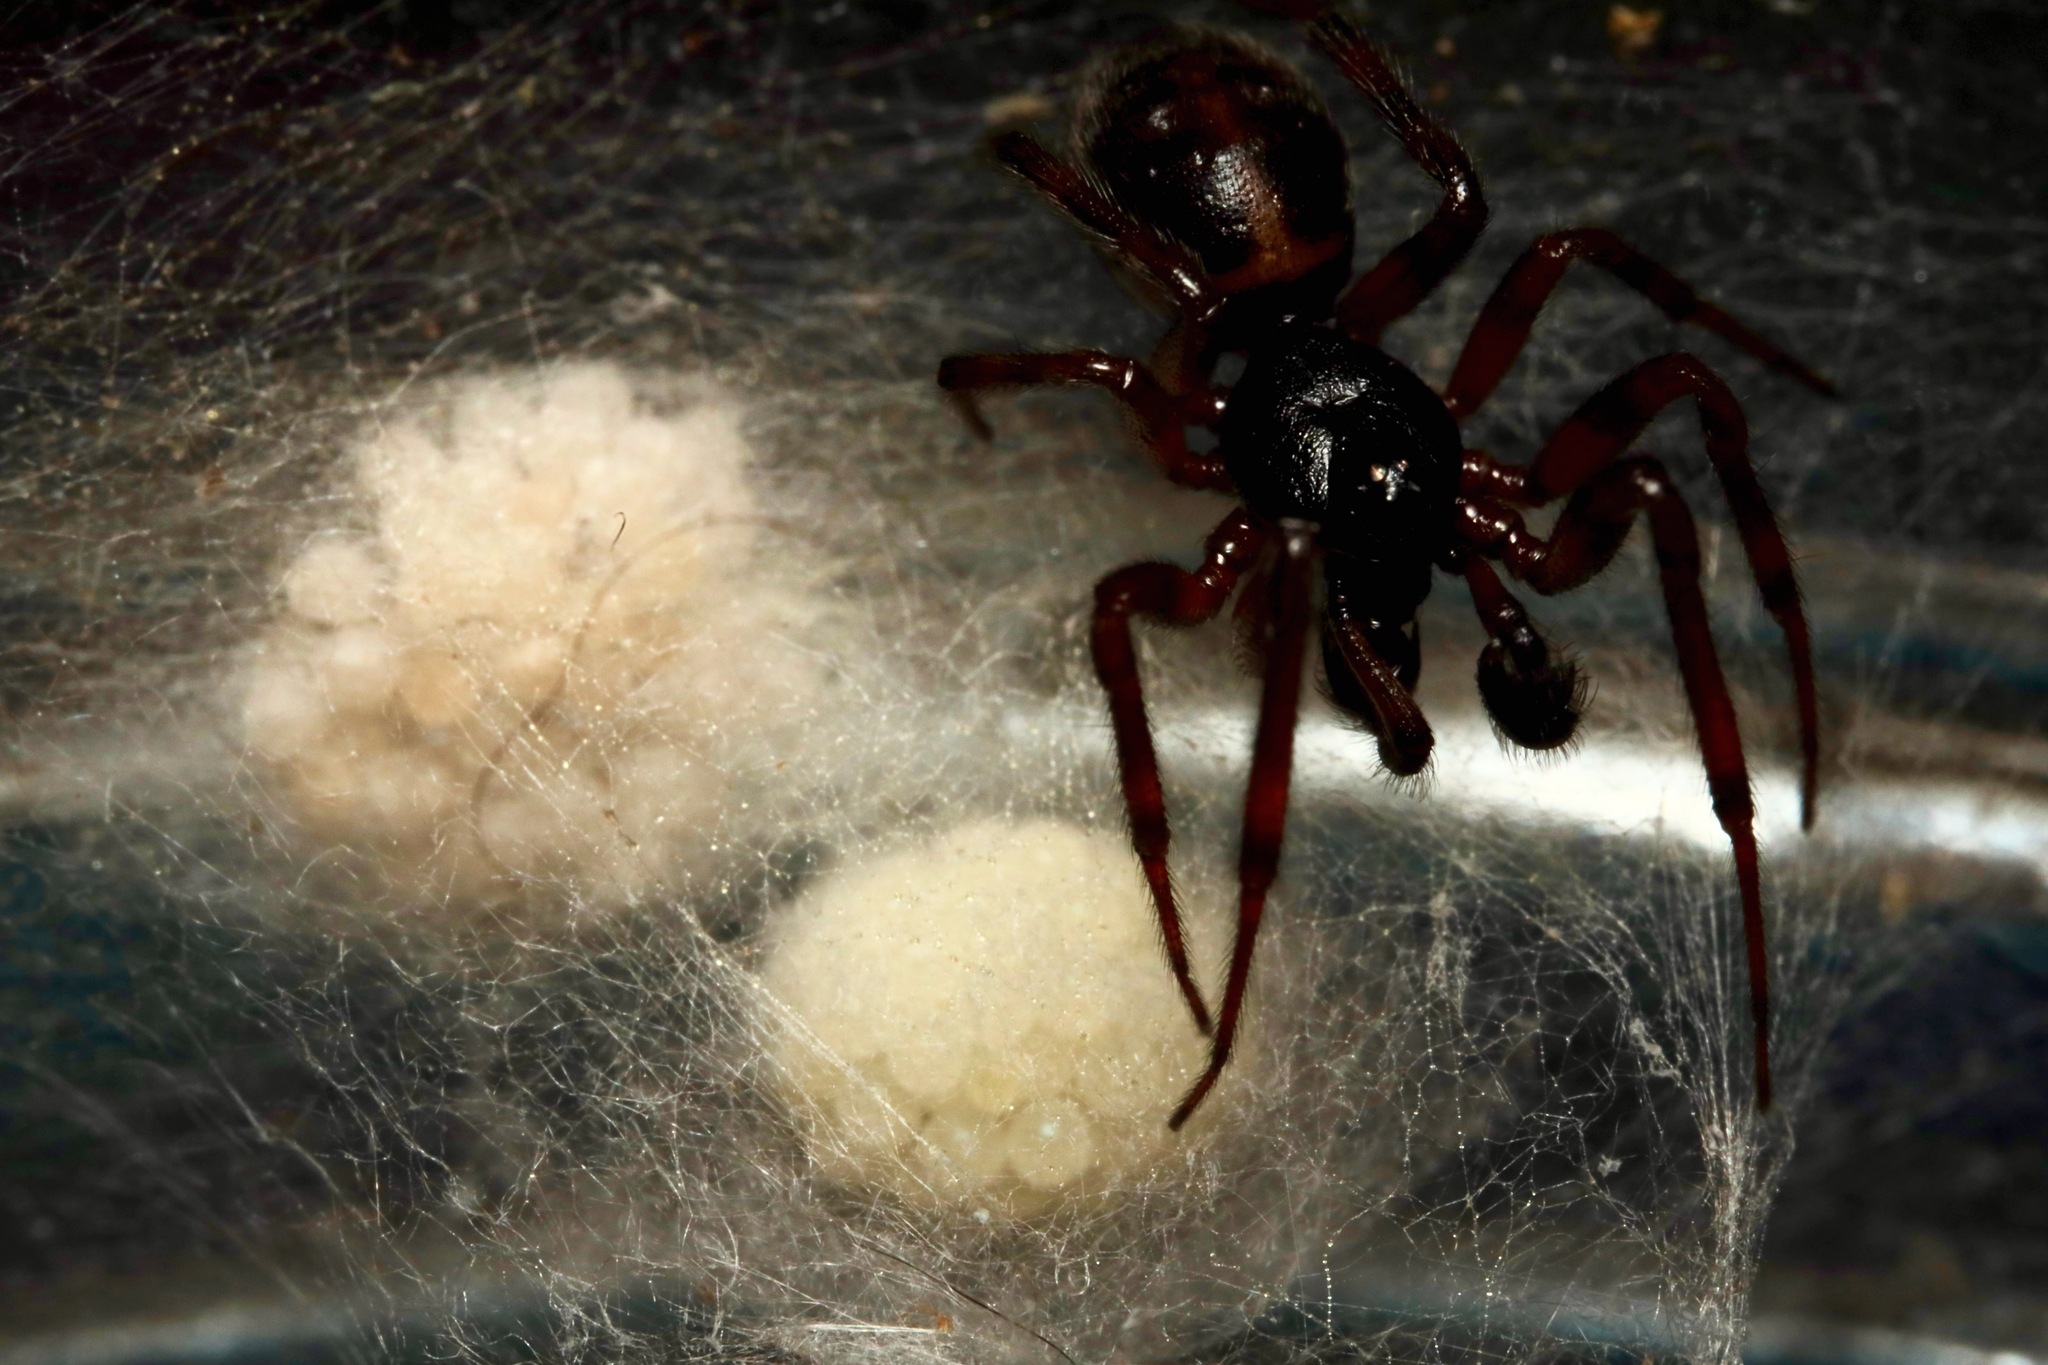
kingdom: Animalia
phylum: Arthropoda
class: Arachnida
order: Araneae
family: Theridiidae
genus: Steatoda
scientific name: Steatoda borealis
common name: Boreal combfoot
